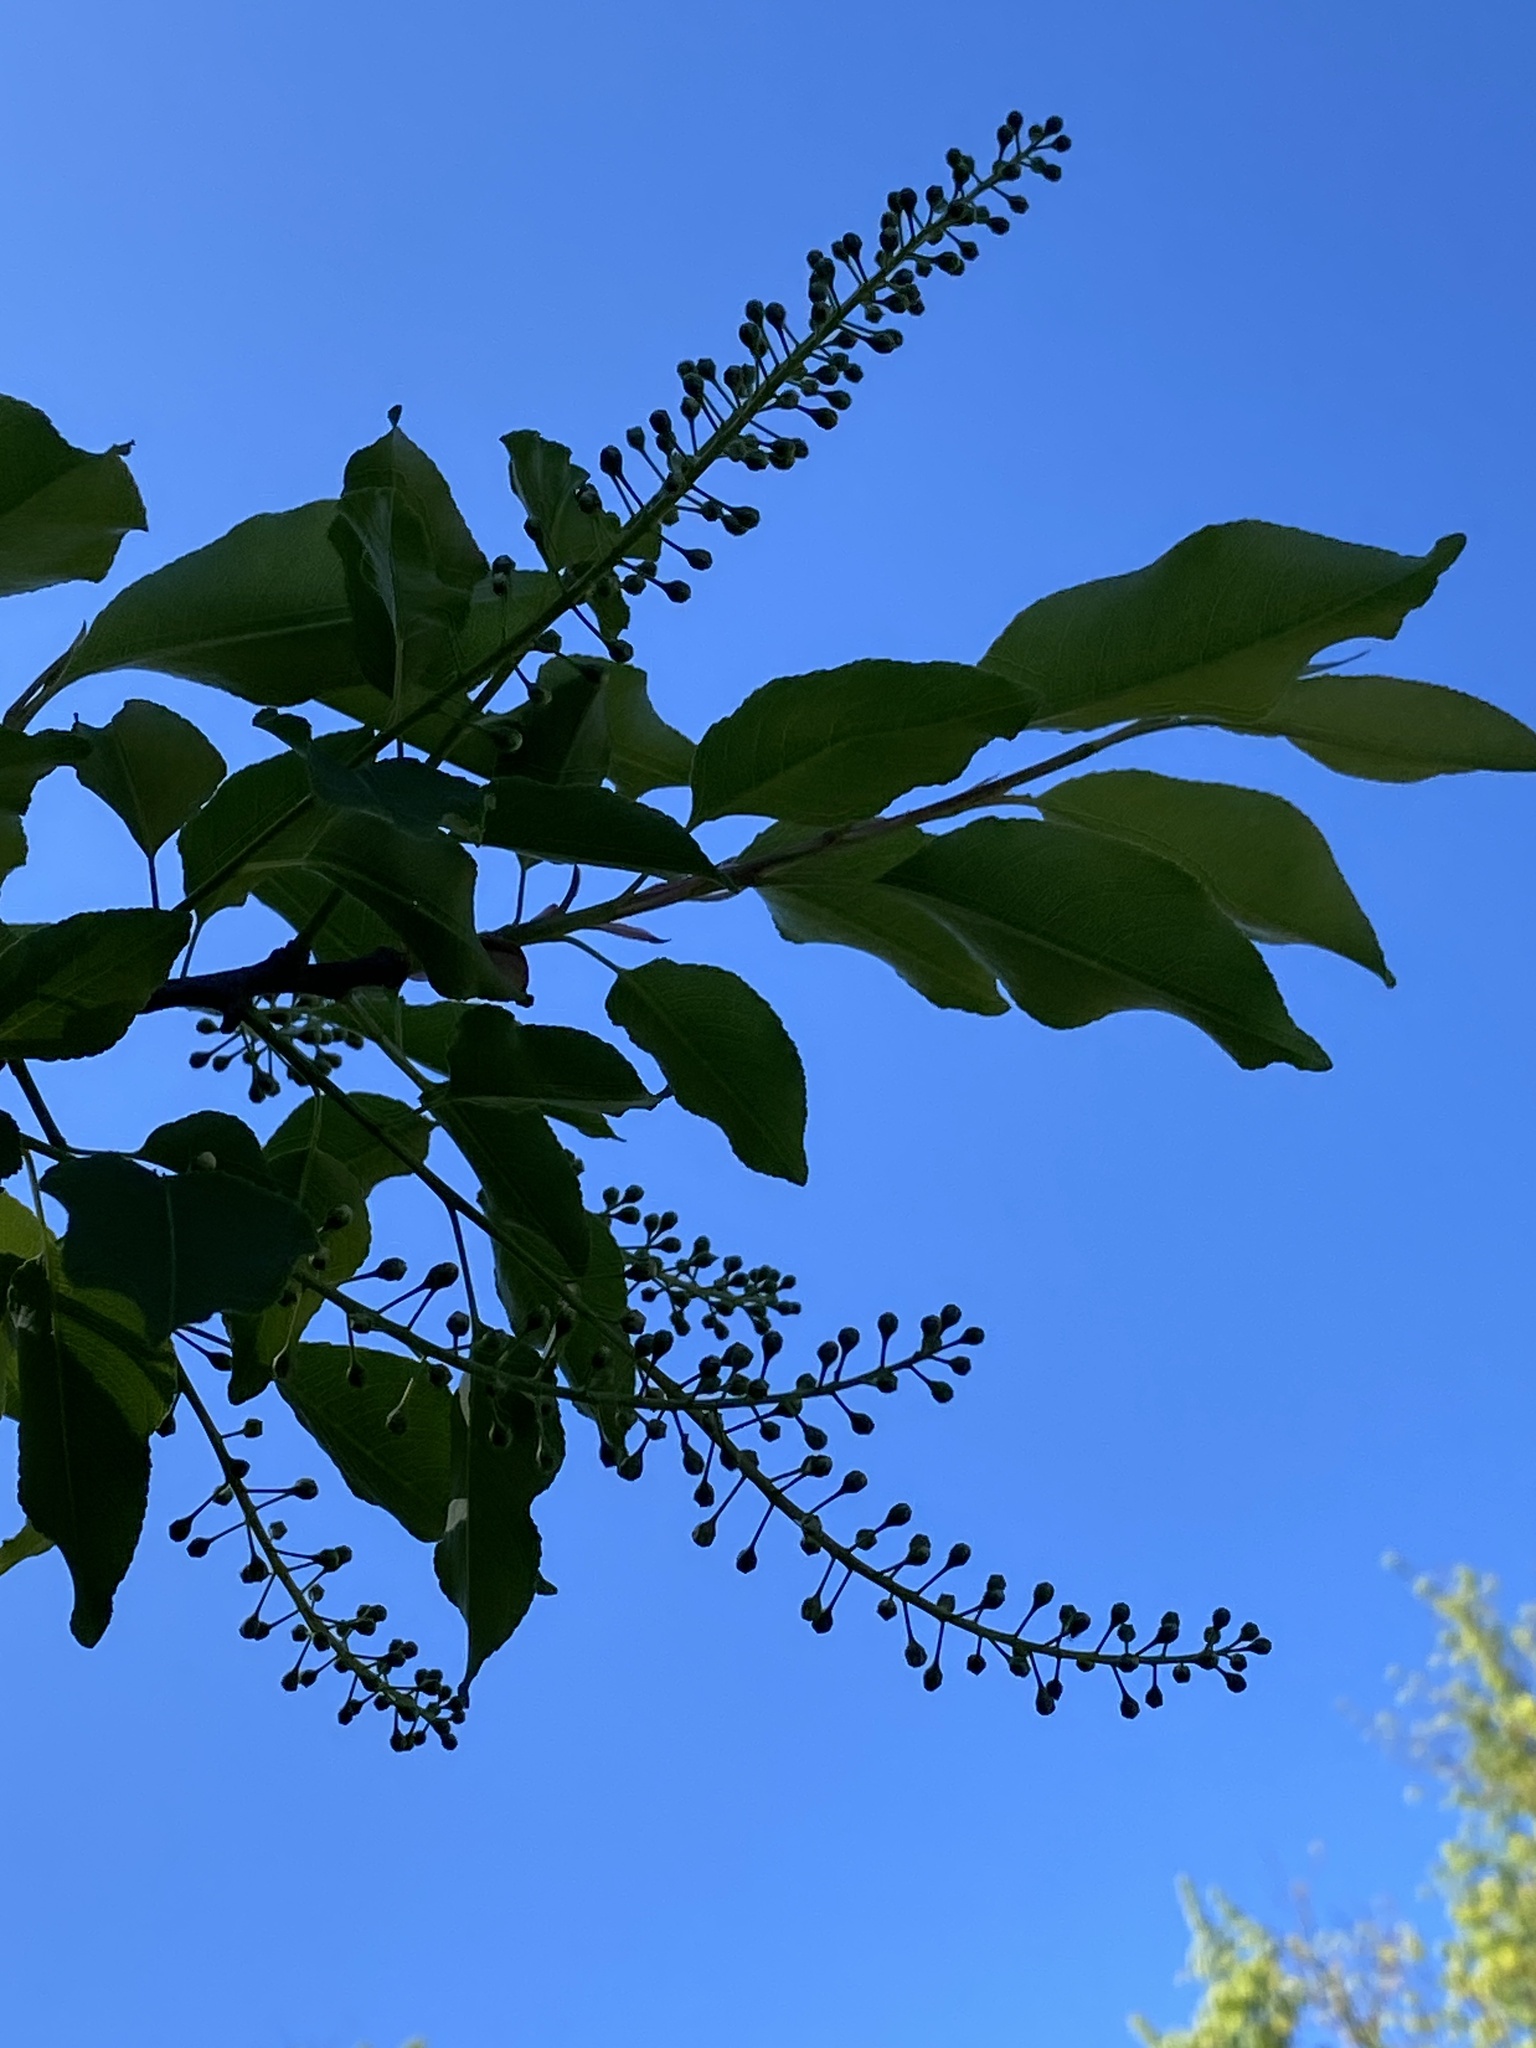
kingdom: Plantae
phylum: Tracheophyta
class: Magnoliopsida
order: Rosales
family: Rosaceae
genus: Prunus
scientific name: Prunus serotina
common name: Black cherry
